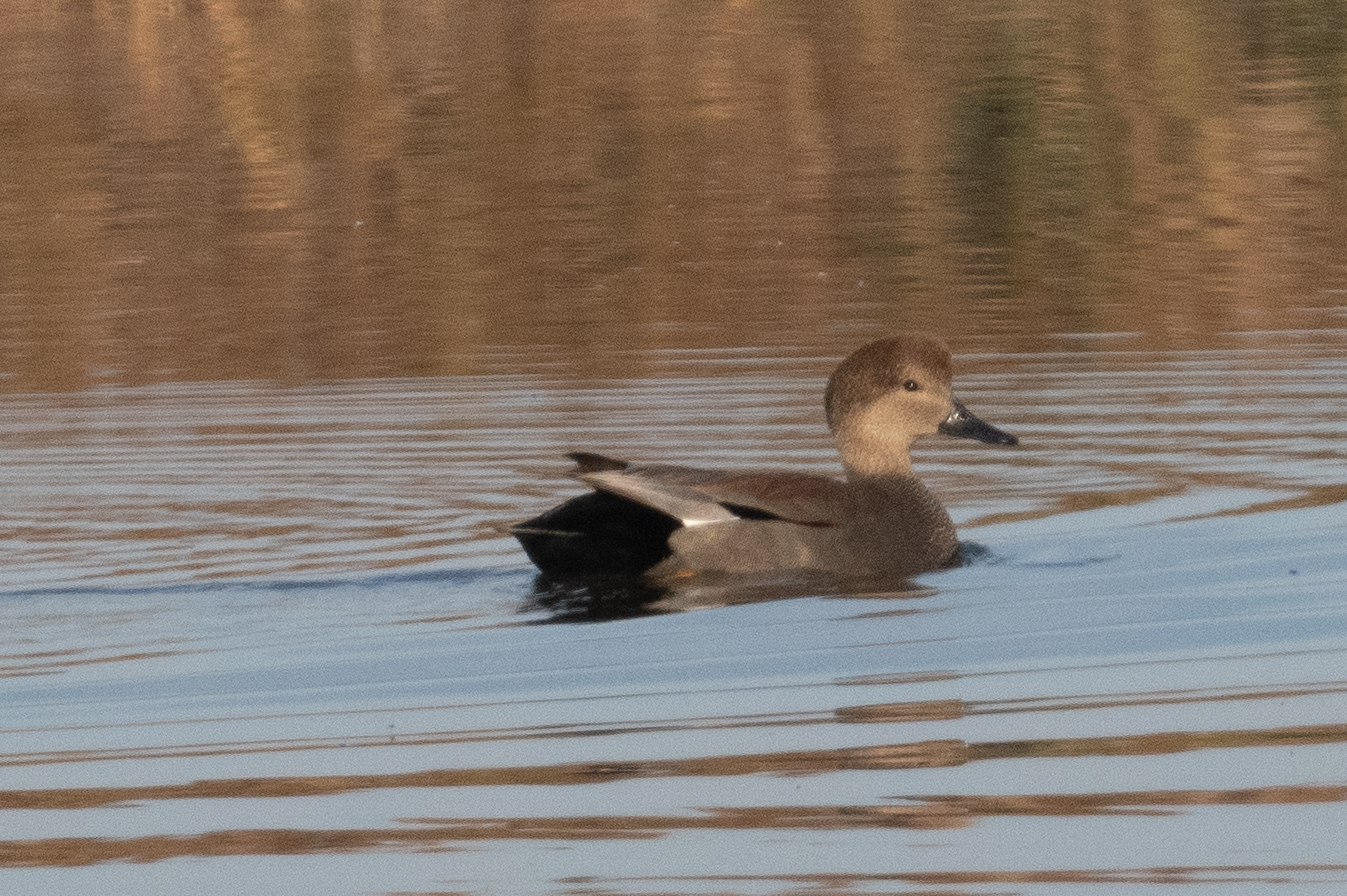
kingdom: Animalia
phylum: Chordata
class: Aves
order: Anseriformes
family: Anatidae
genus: Mareca
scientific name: Mareca strepera
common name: Gadwall
